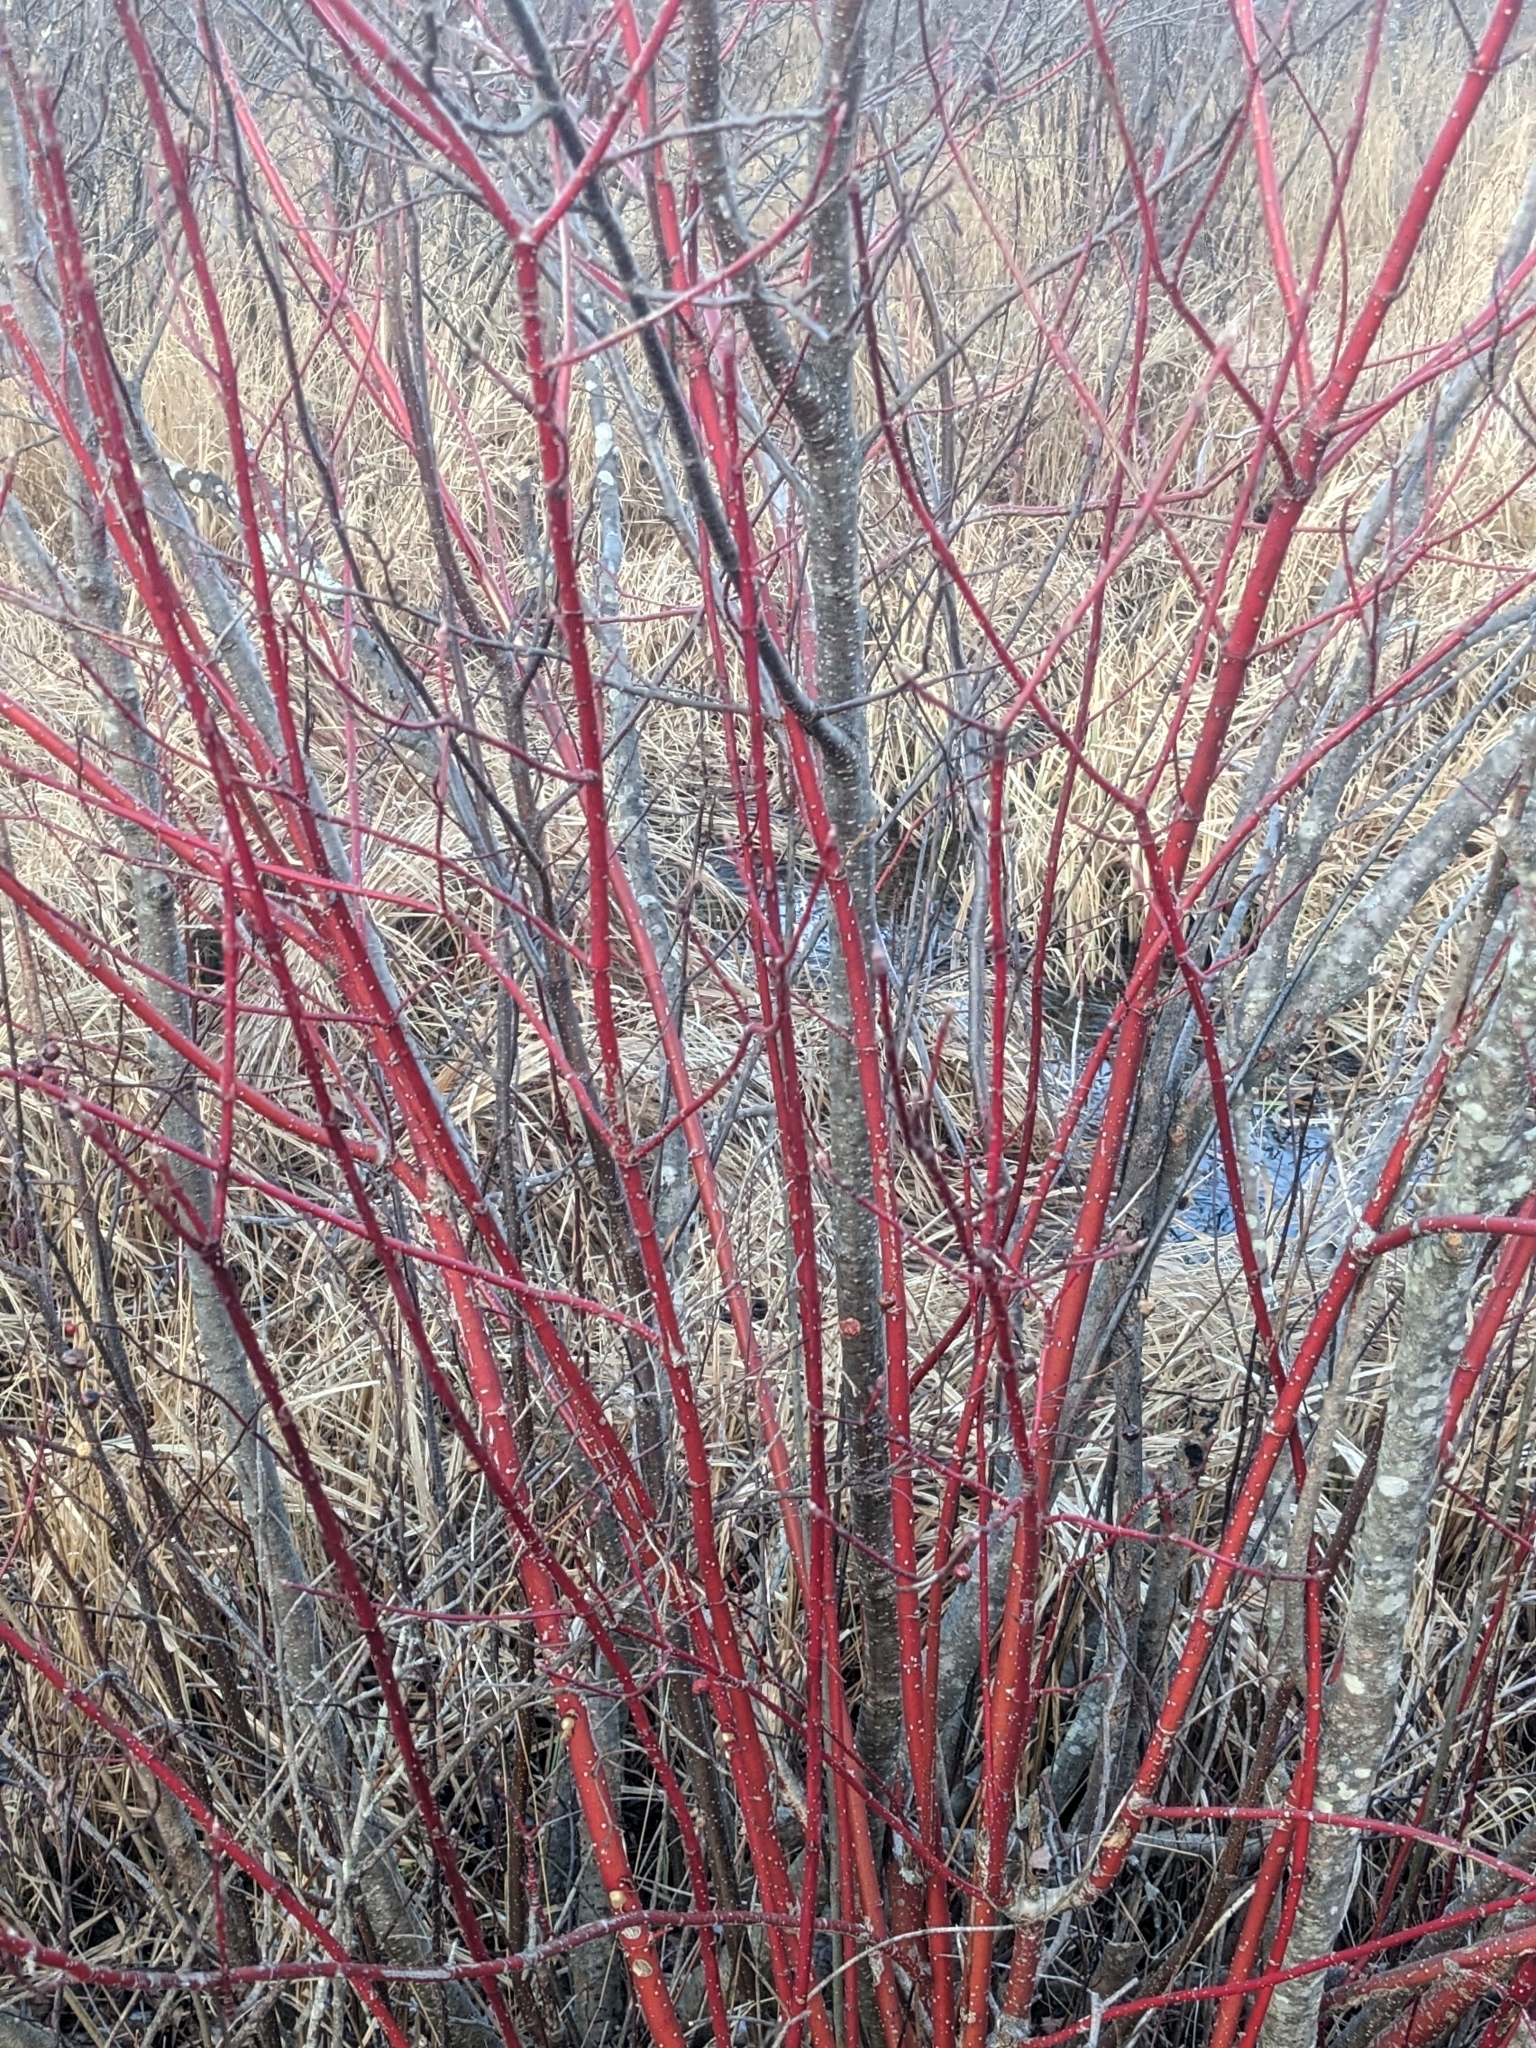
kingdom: Plantae
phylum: Tracheophyta
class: Magnoliopsida
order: Cornales
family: Cornaceae
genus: Cornus
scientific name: Cornus sericea
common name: Red-osier dogwood
